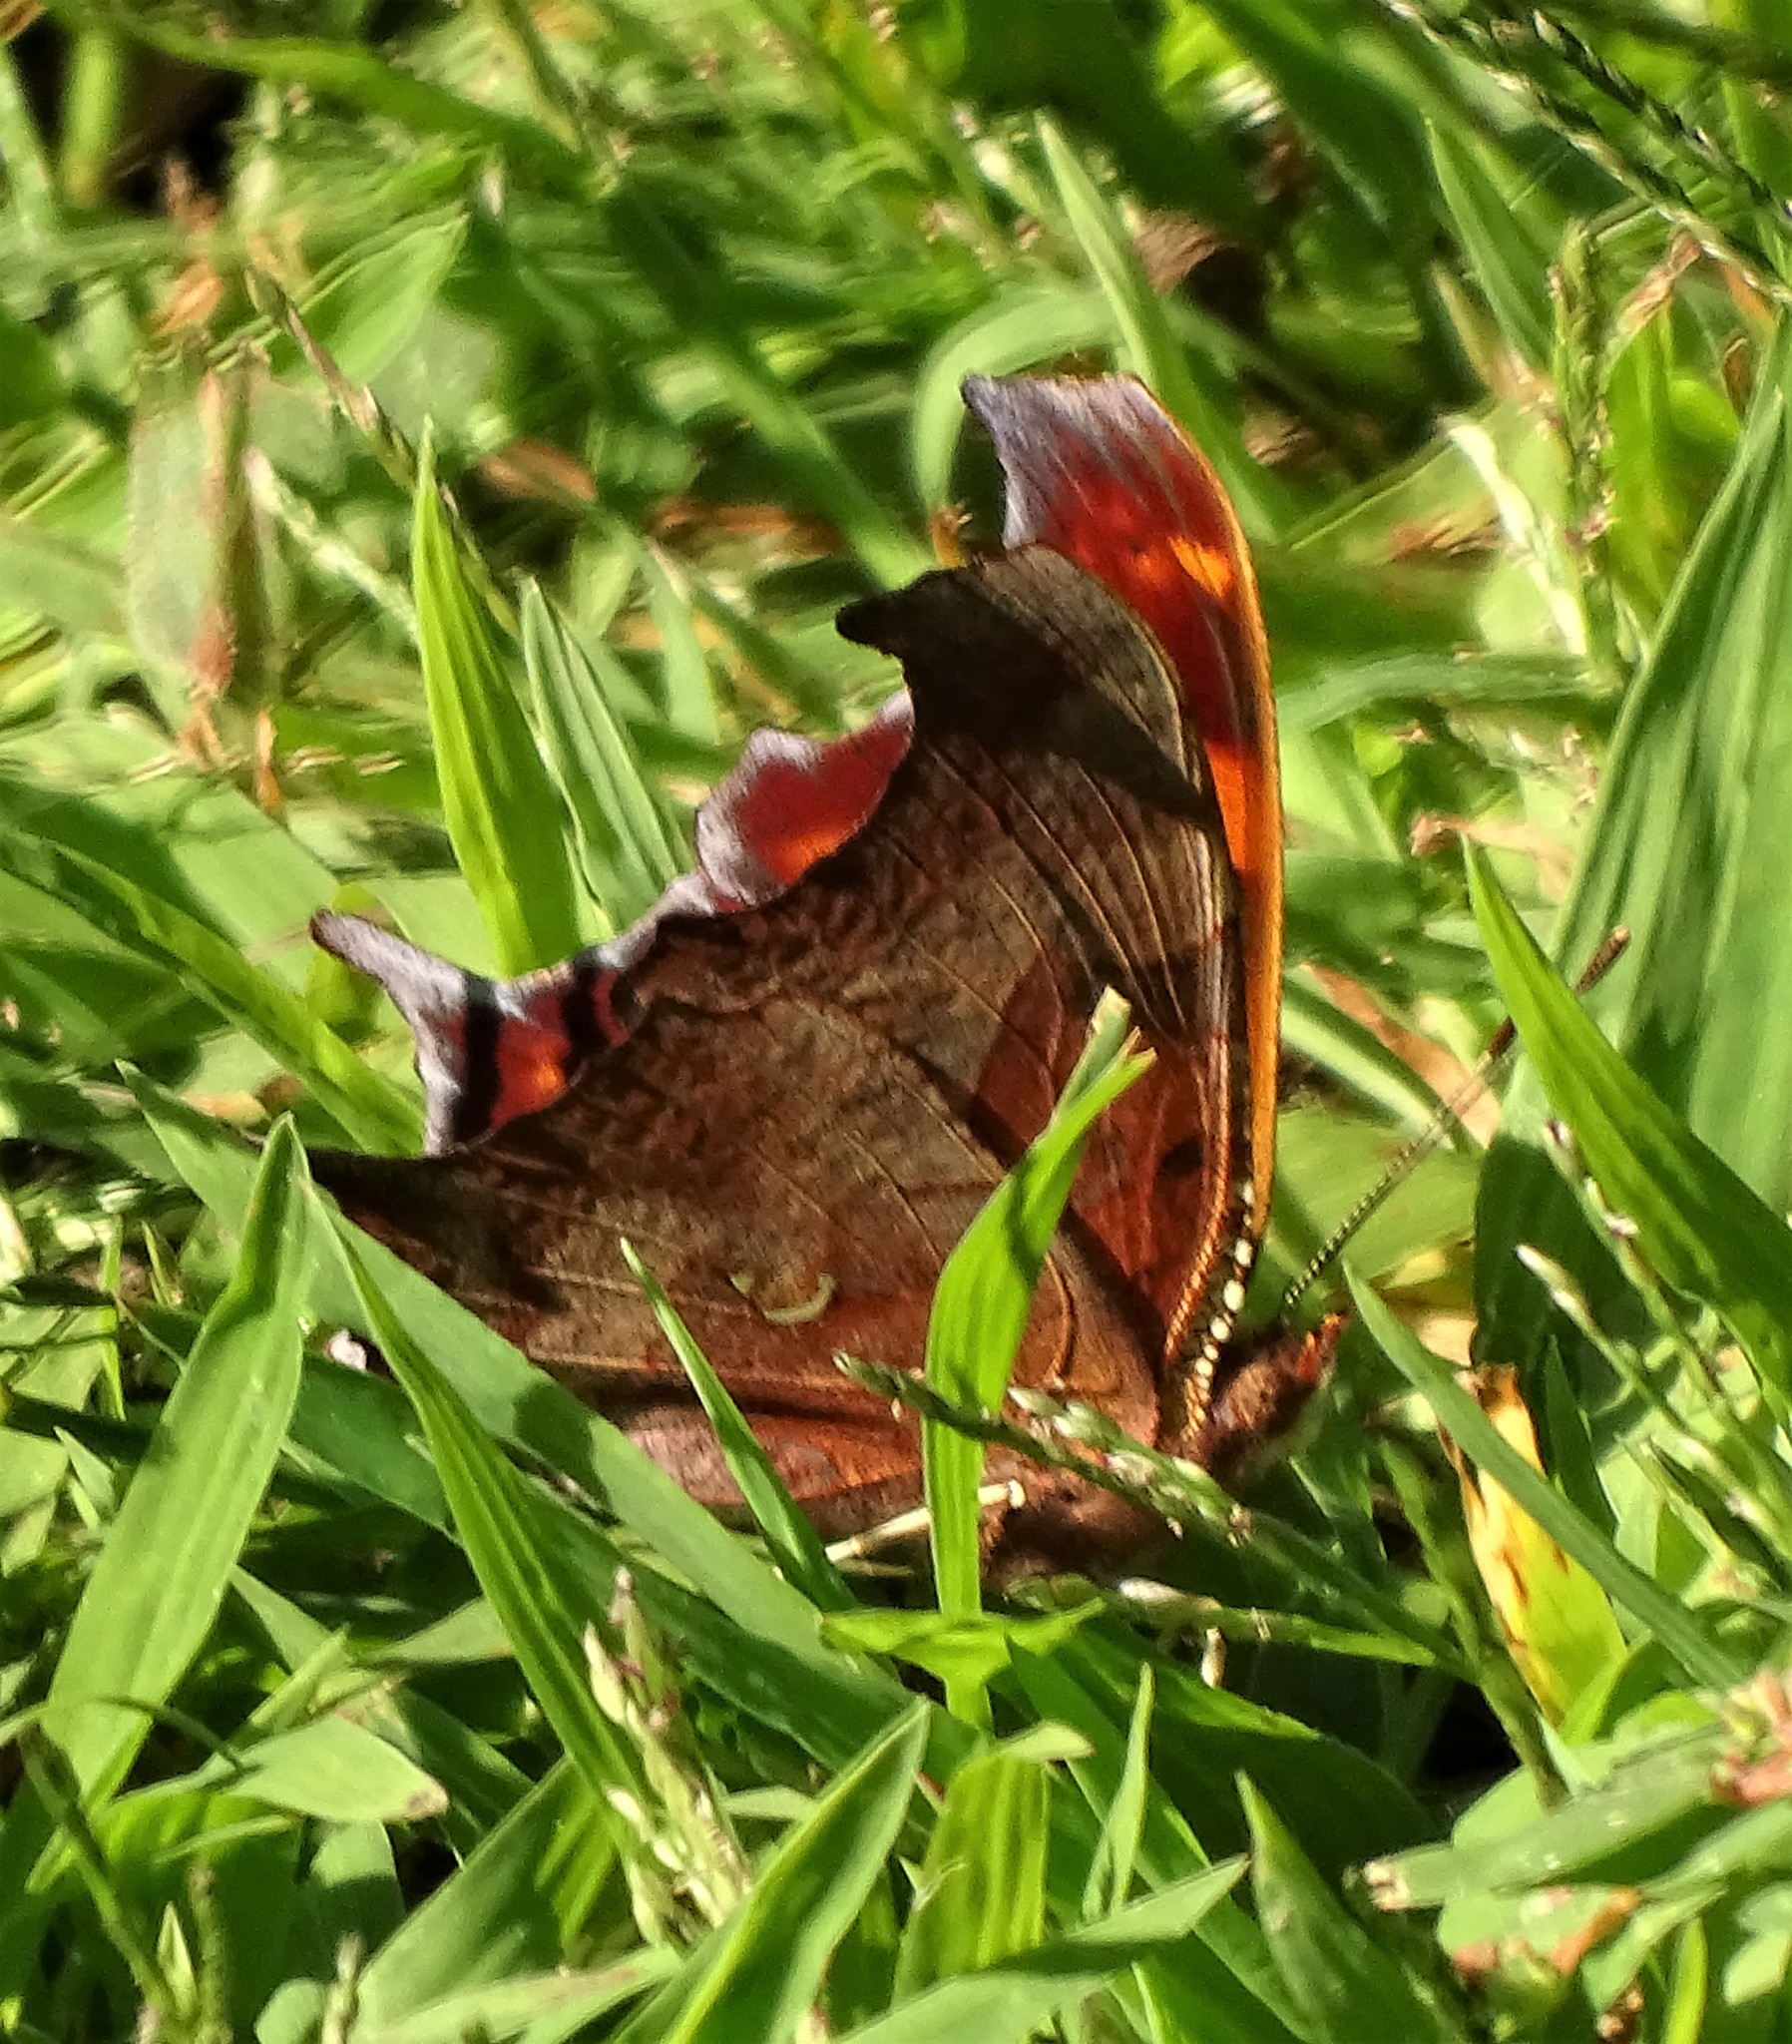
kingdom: Animalia
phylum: Arthropoda
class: Insecta
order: Lepidoptera
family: Nymphalidae
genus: Polygonia
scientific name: Polygonia interrogationis
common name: Question mark
